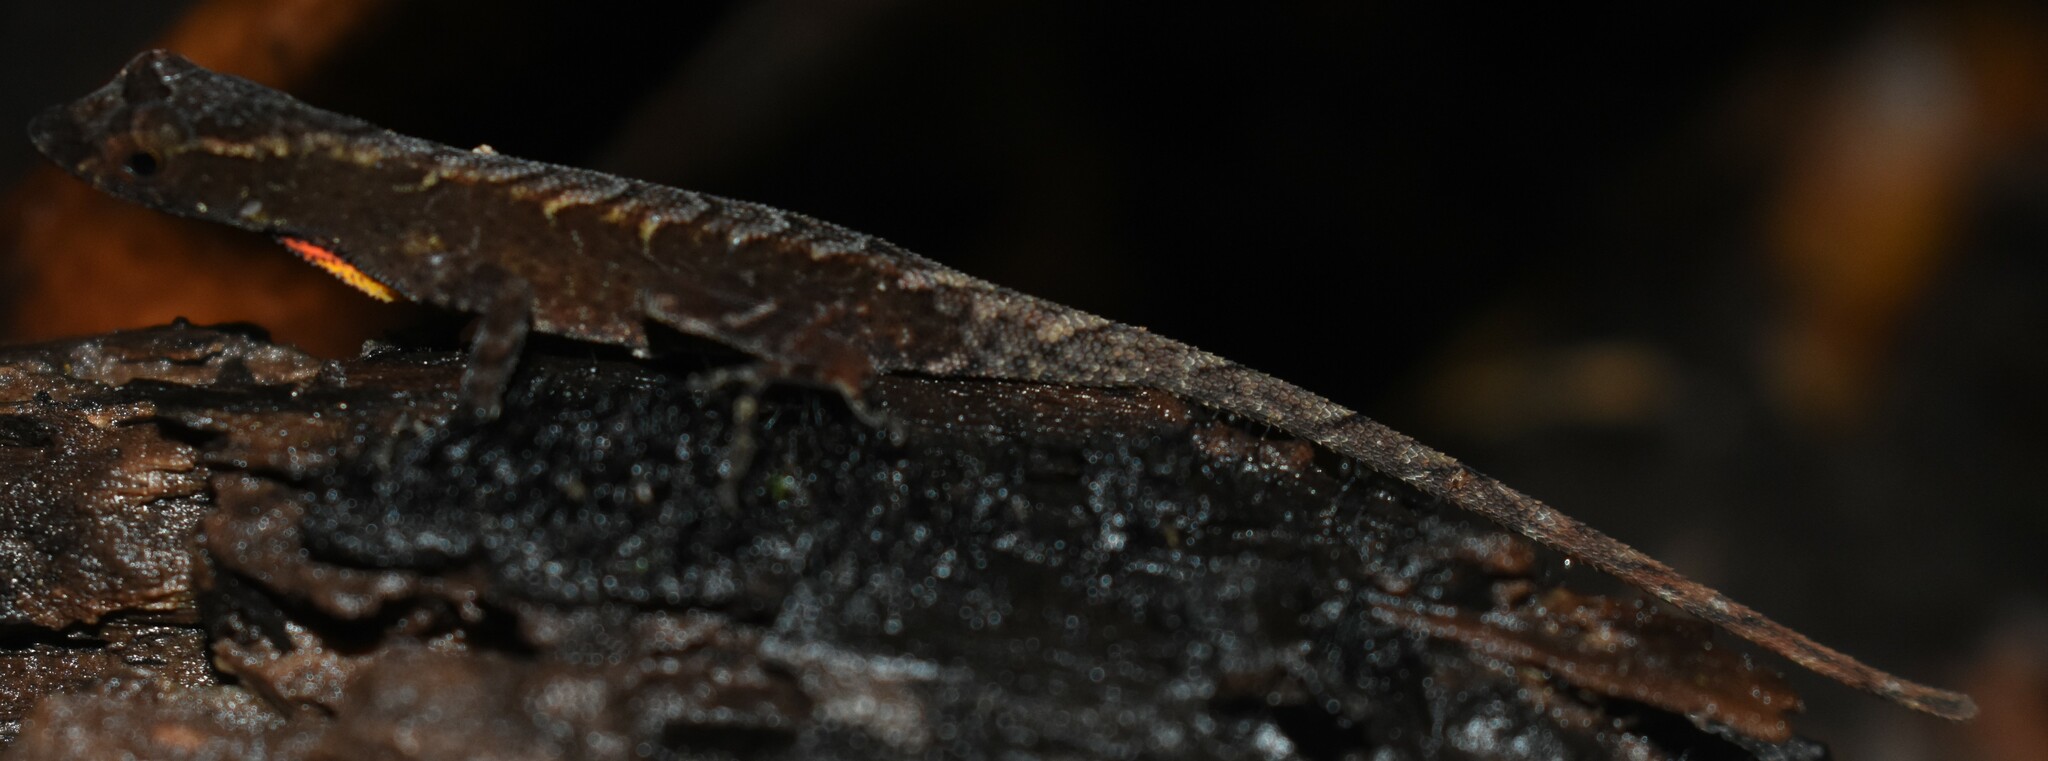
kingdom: Animalia
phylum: Chordata
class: Squamata
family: Dactyloidae
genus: Anolis
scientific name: Anolis humilis
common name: Humble anole
